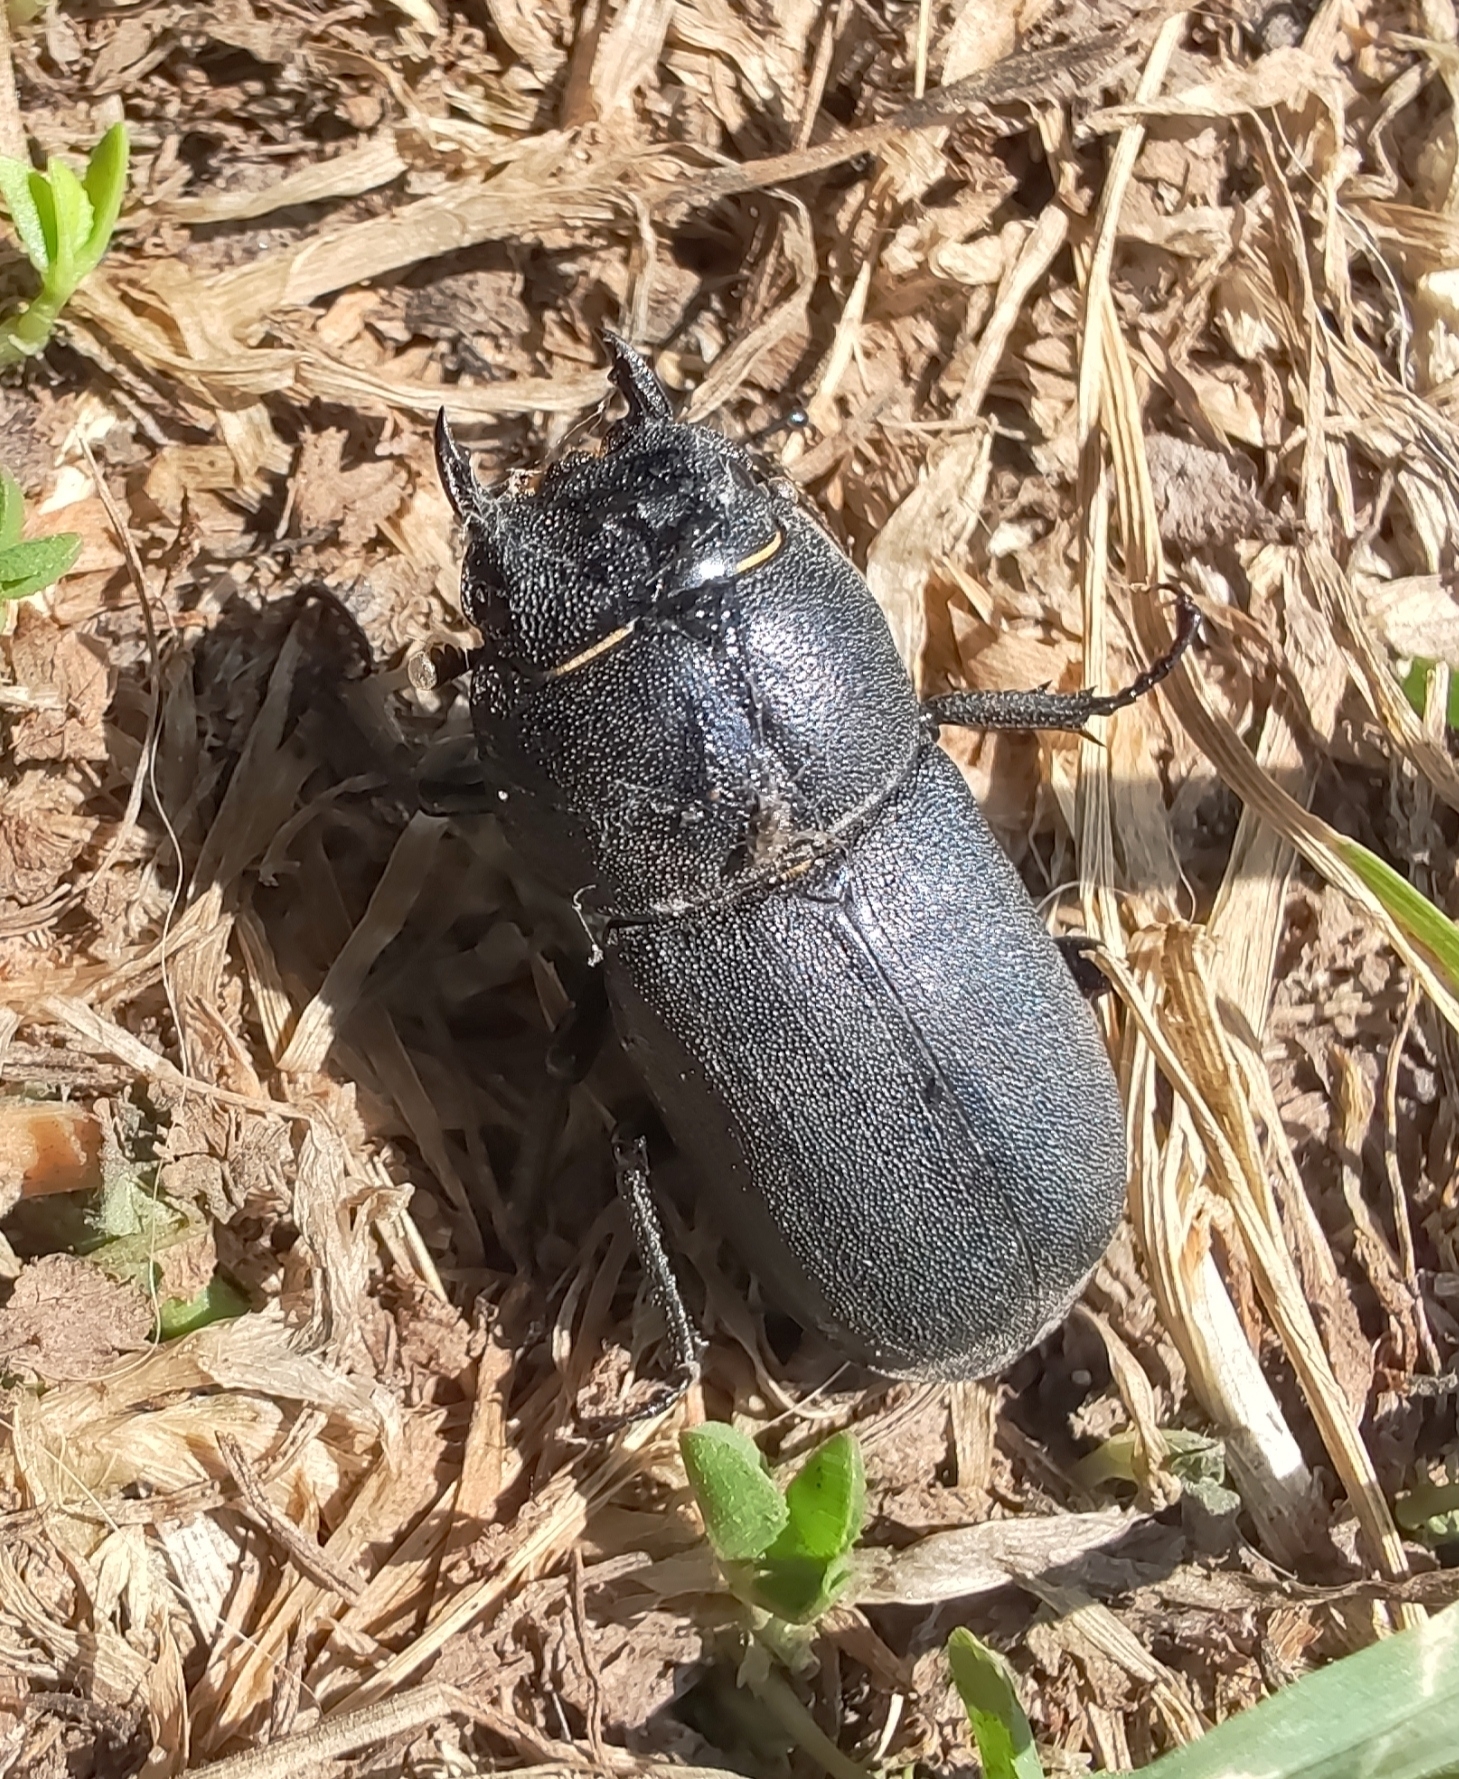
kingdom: Animalia
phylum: Arthropoda
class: Insecta
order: Coleoptera
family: Lucanidae
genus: Dorcus
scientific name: Dorcus parallelipipedus
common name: Lesser stag beetle
